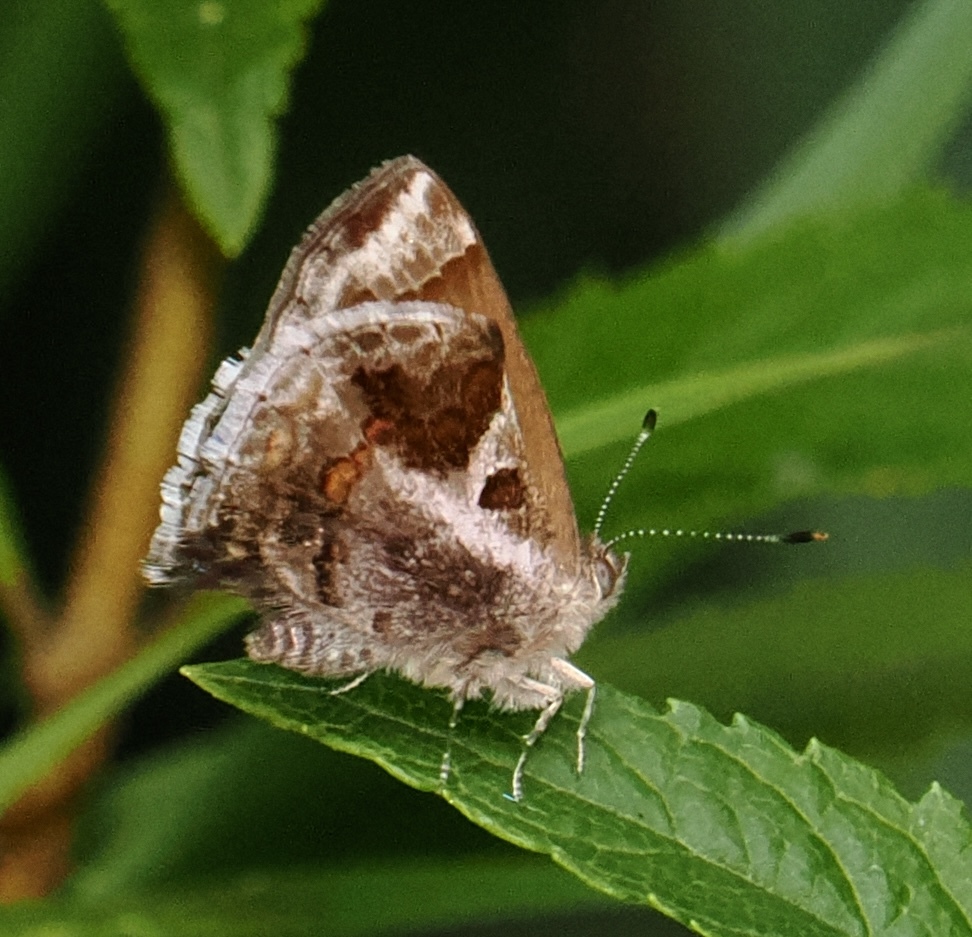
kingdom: Animalia
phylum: Arthropoda
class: Insecta
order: Lepidoptera
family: Lycaenidae
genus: Strymon
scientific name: Strymon bazochii
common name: Lantana scrub-hairstreak
